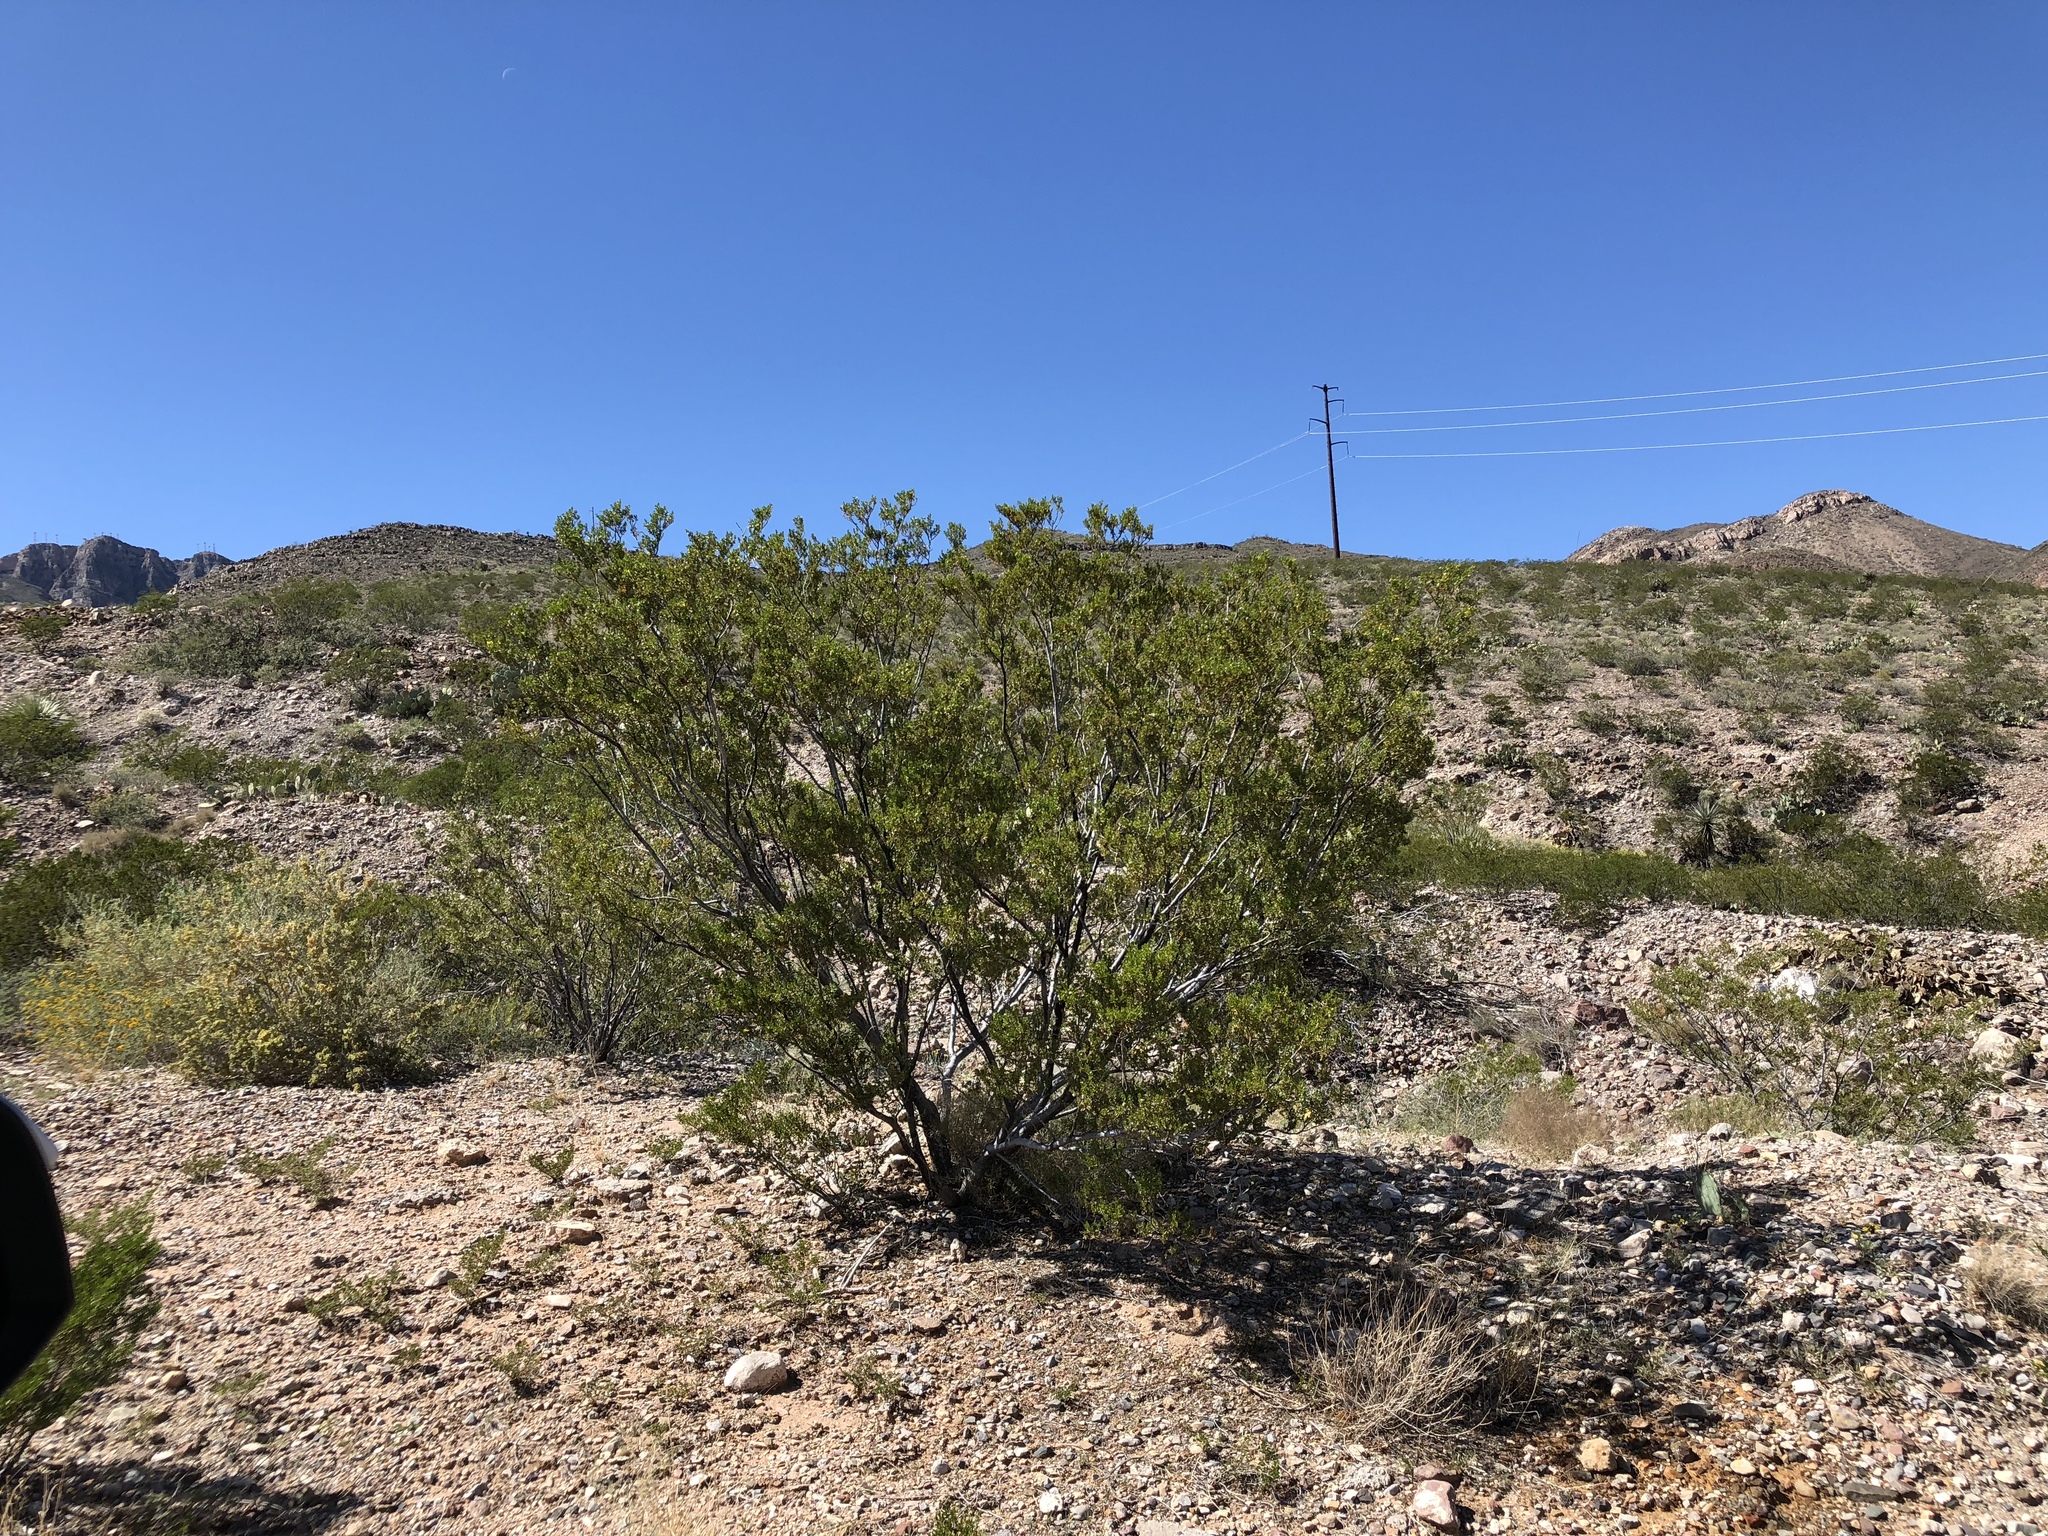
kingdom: Plantae
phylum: Tracheophyta
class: Magnoliopsida
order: Zygophyllales
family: Zygophyllaceae
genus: Larrea
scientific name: Larrea tridentata
